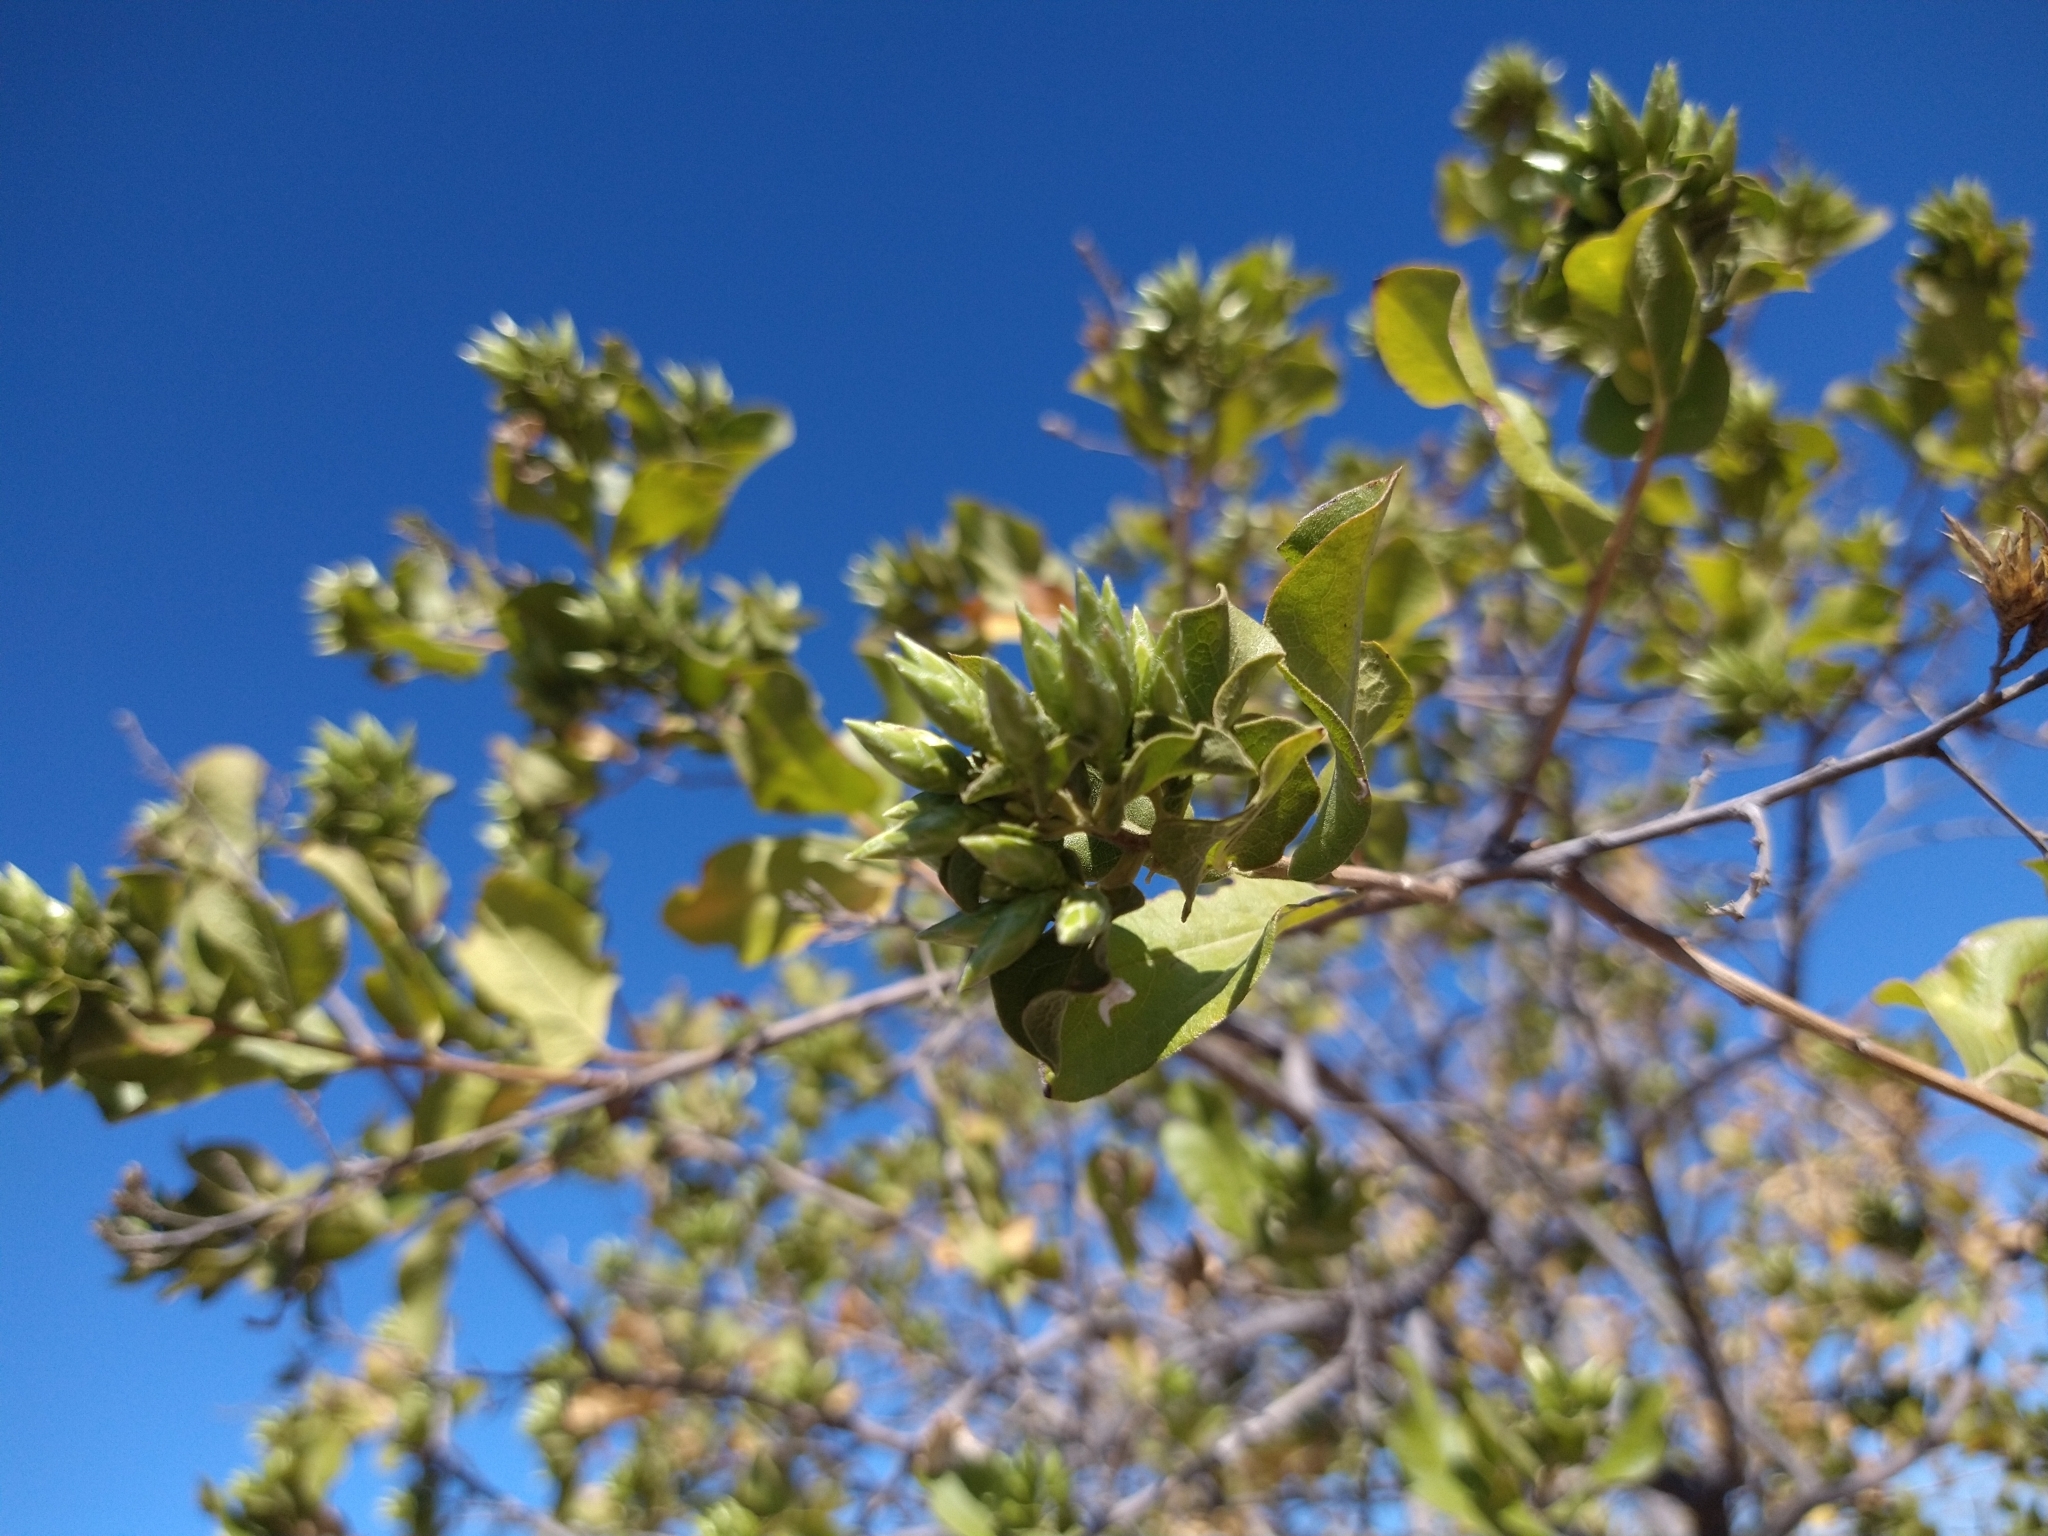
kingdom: Plantae
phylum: Tracheophyta
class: Magnoliopsida
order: Asterales
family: Asteraceae
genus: Nahuatlea
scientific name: Nahuatlea arborescens
